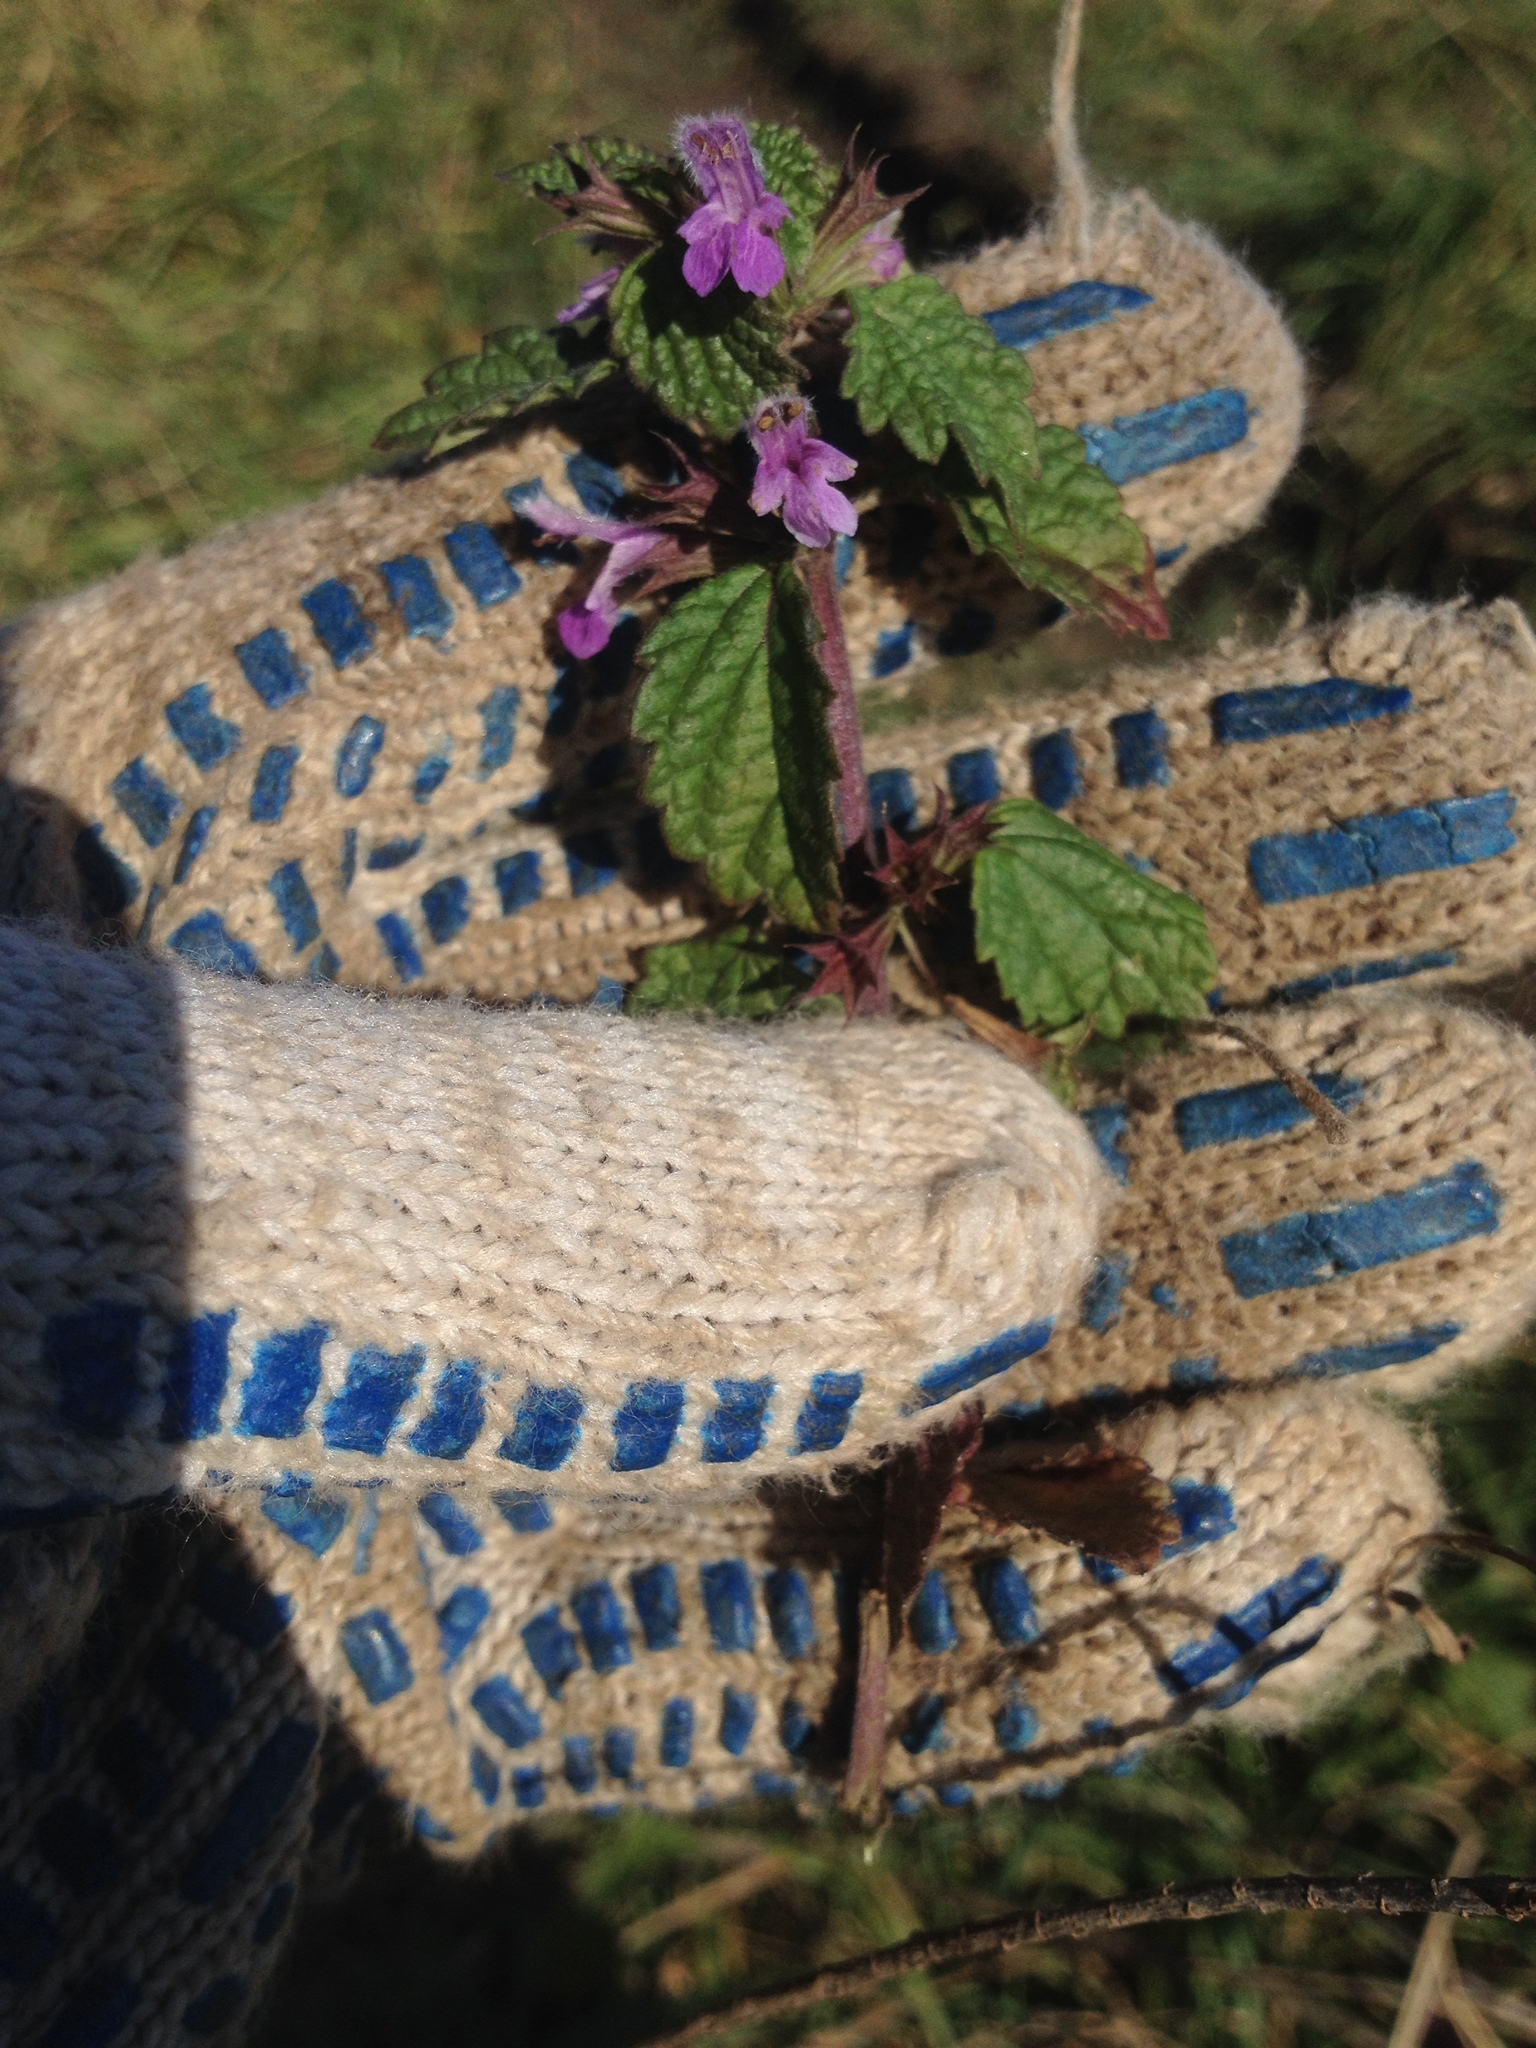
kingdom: Plantae
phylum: Tracheophyta
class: Magnoliopsida
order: Lamiales
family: Lamiaceae
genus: Ballota
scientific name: Ballota nigra
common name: Black horehound
